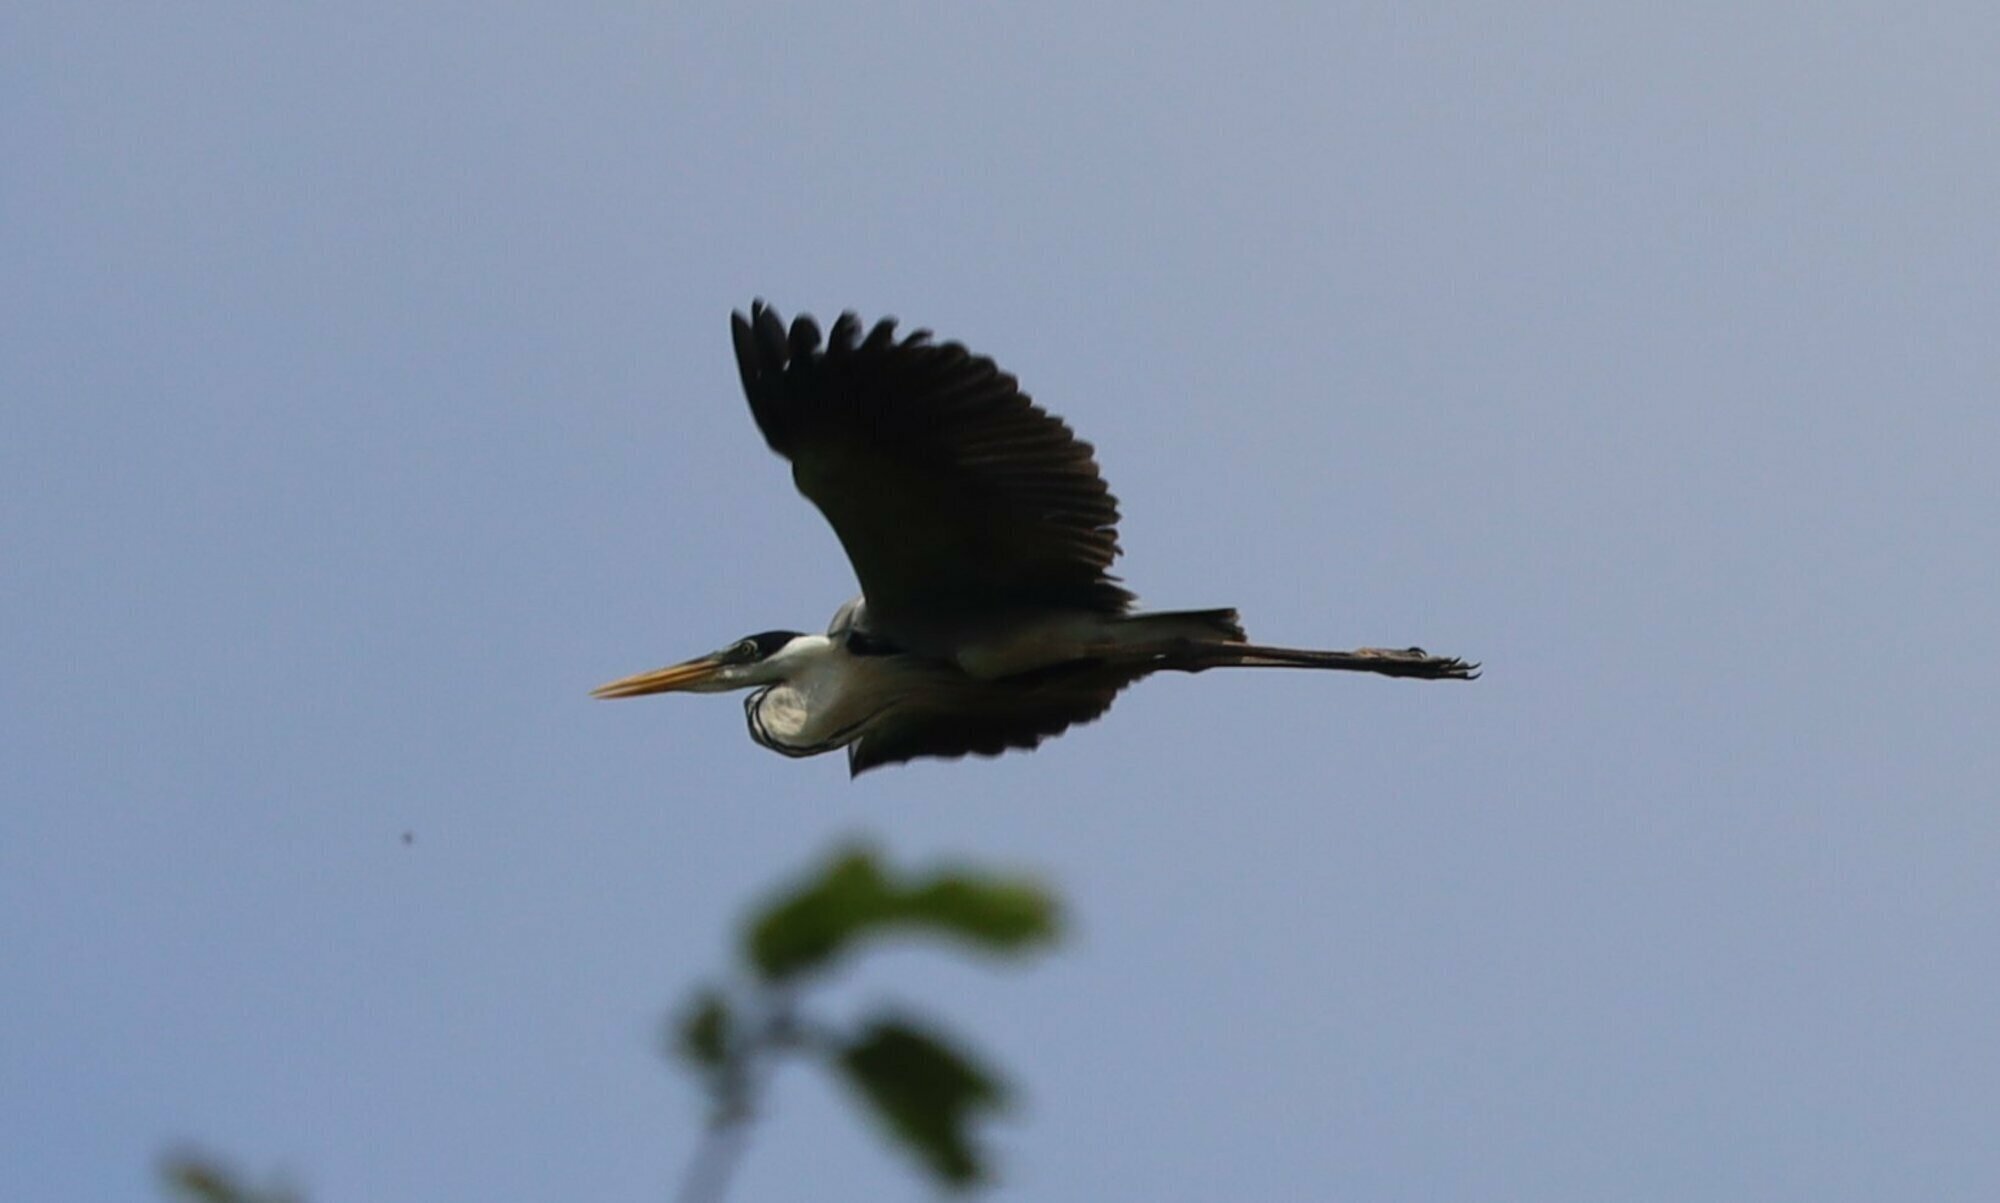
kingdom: Animalia
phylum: Chordata
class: Aves
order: Pelecaniformes
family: Ardeidae
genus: Ardea
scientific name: Ardea cocoi
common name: Cocoi heron
